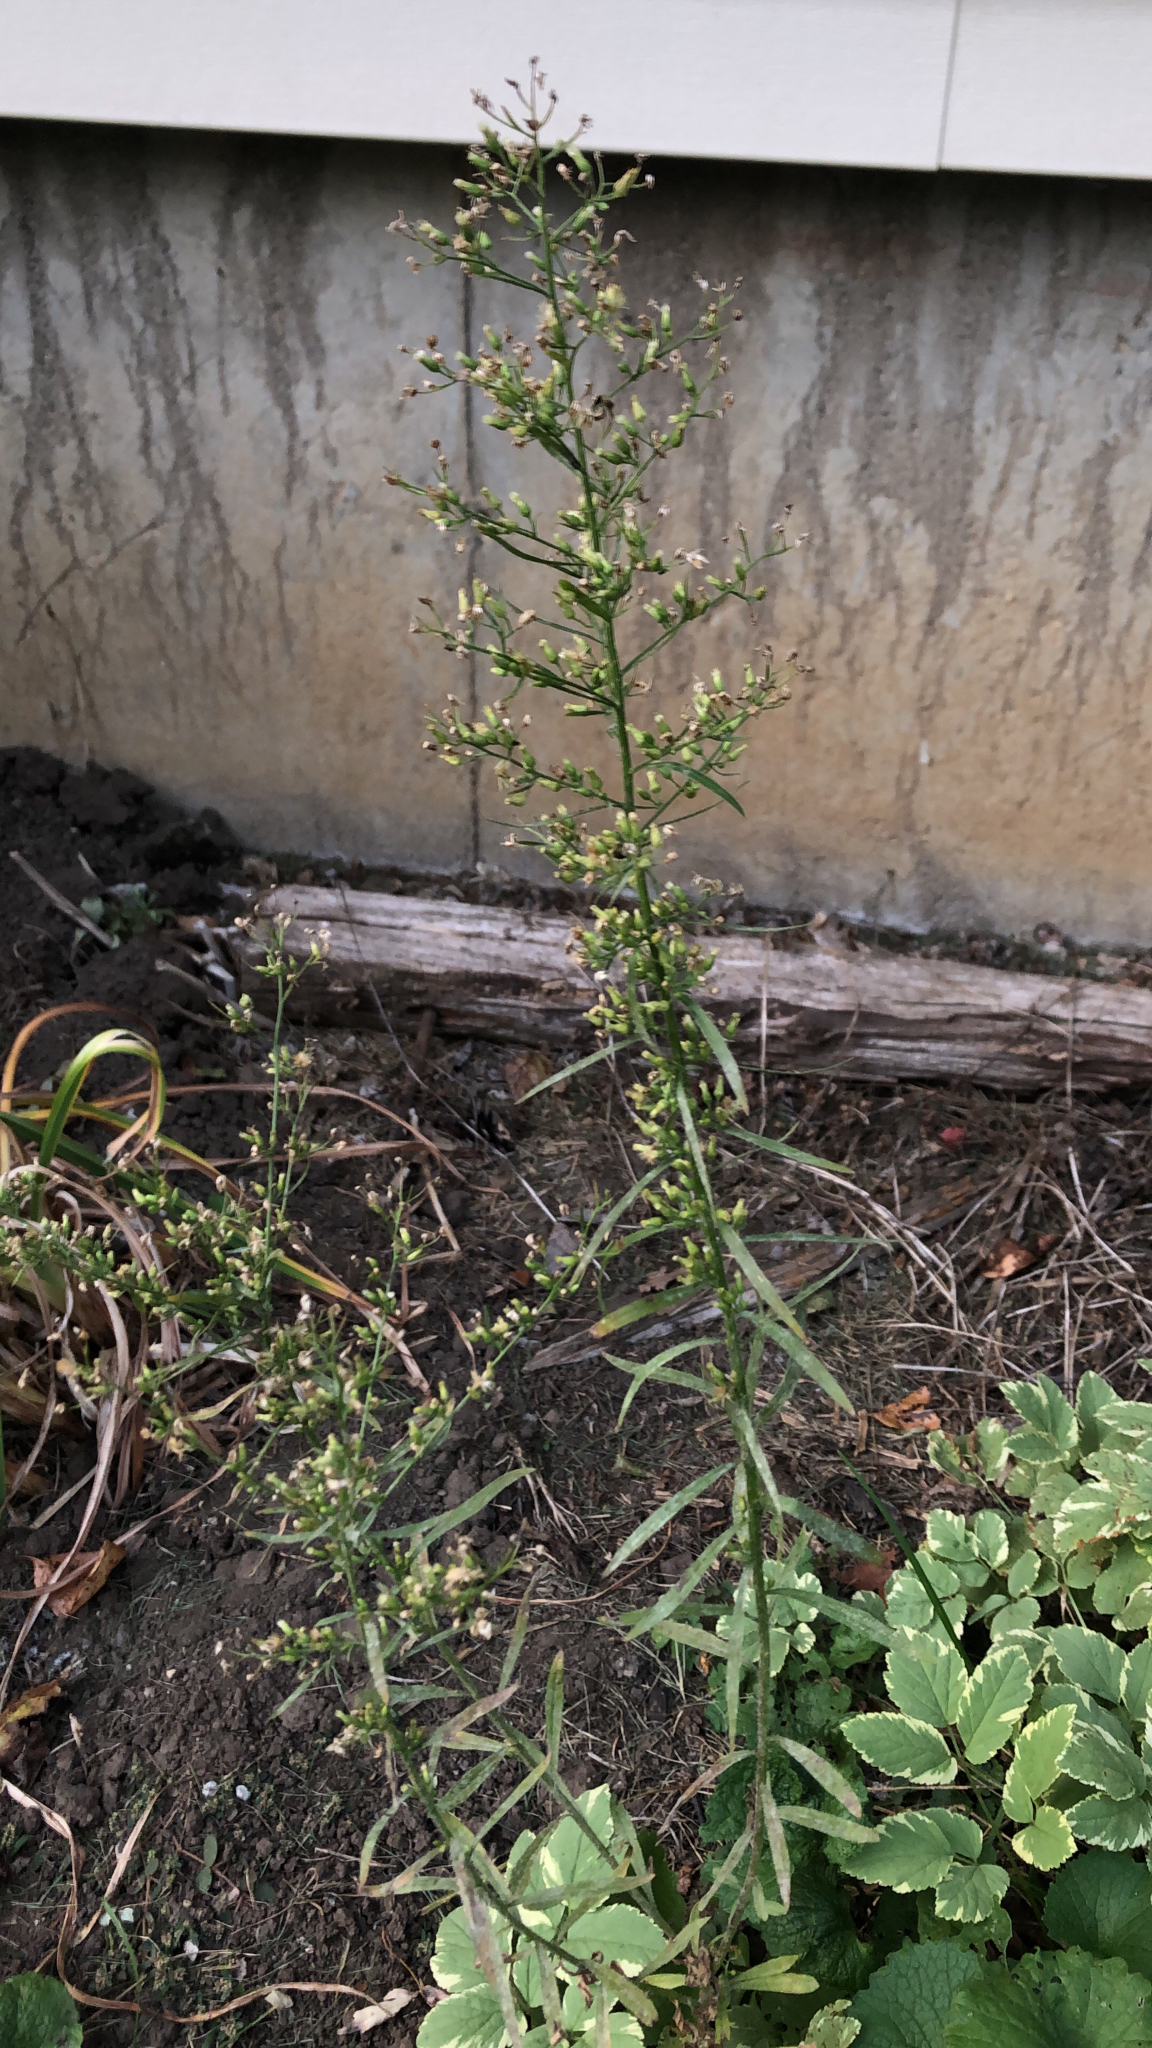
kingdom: Plantae
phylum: Tracheophyta
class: Magnoliopsida
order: Asterales
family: Asteraceae
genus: Erigeron
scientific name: Erigeron canadensis
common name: Canadian fleabane
